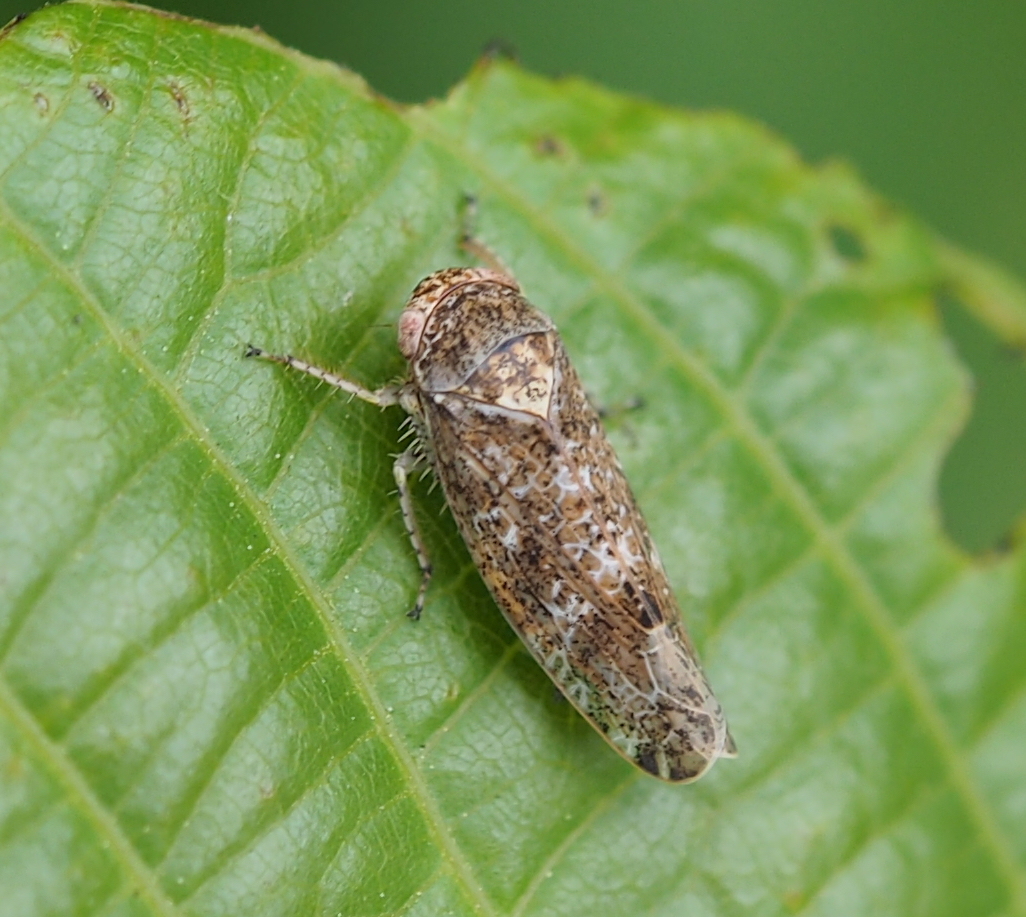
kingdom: Animalia
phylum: Arthropoda
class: Insecta
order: Hemiptera
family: Cicadellidae
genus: Allygidius
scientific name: Allygidius atomarius
